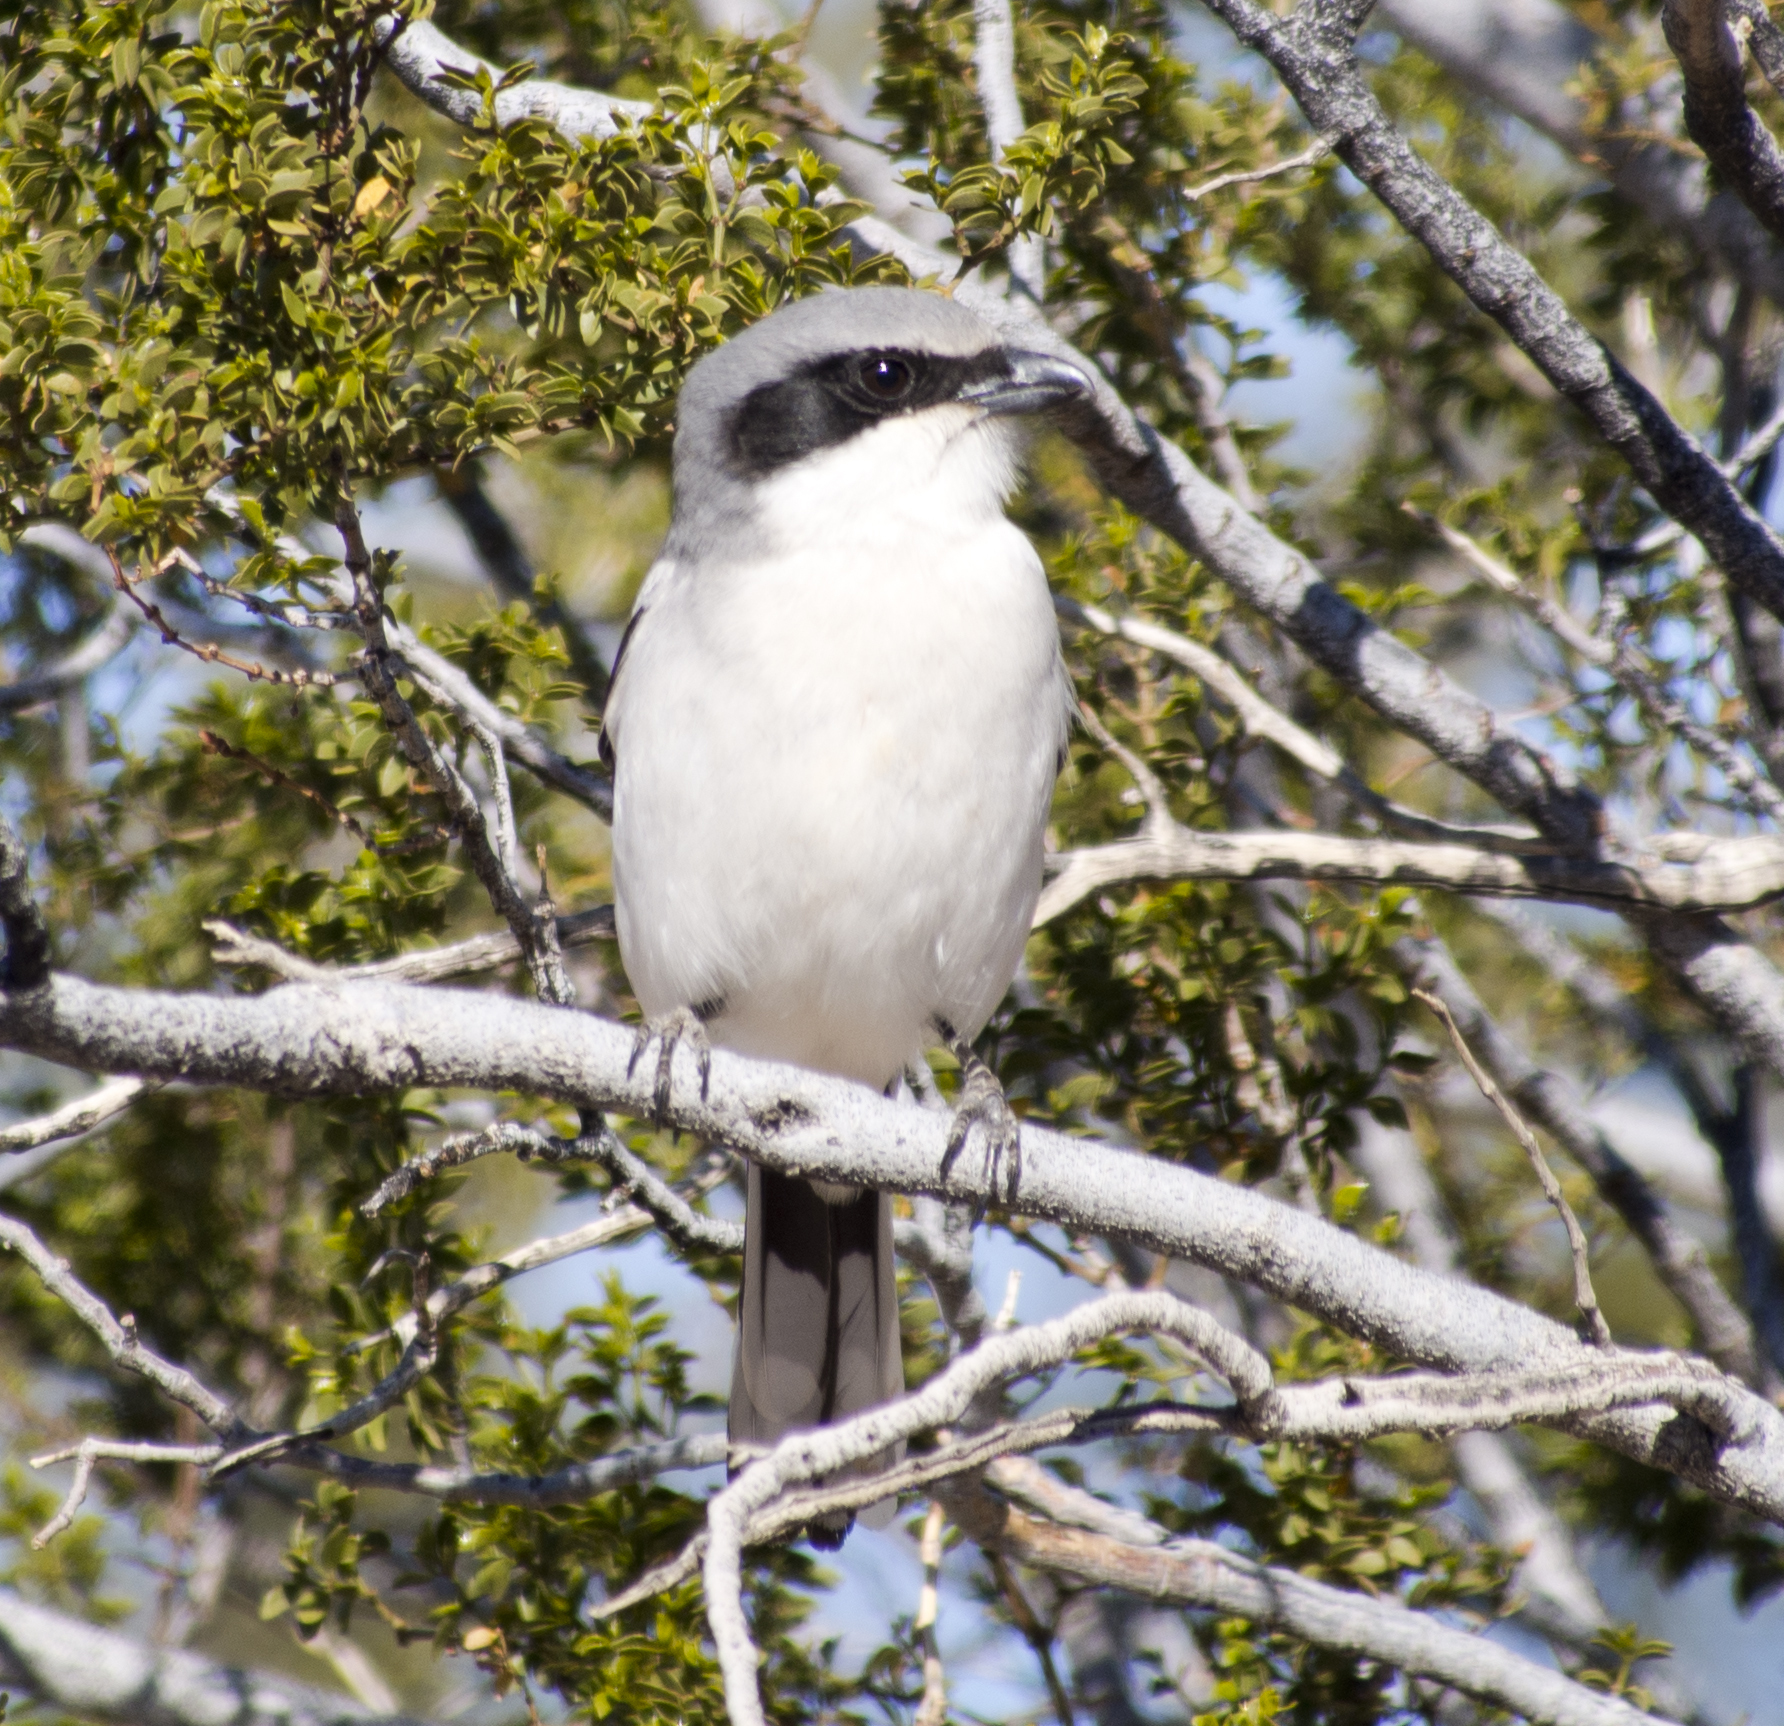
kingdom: Animalia
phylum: Chordata
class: Aves
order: Passeriformes
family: Laniidae
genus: Lanius
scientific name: Lanius ludovicianus
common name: Loggerhead shrike
